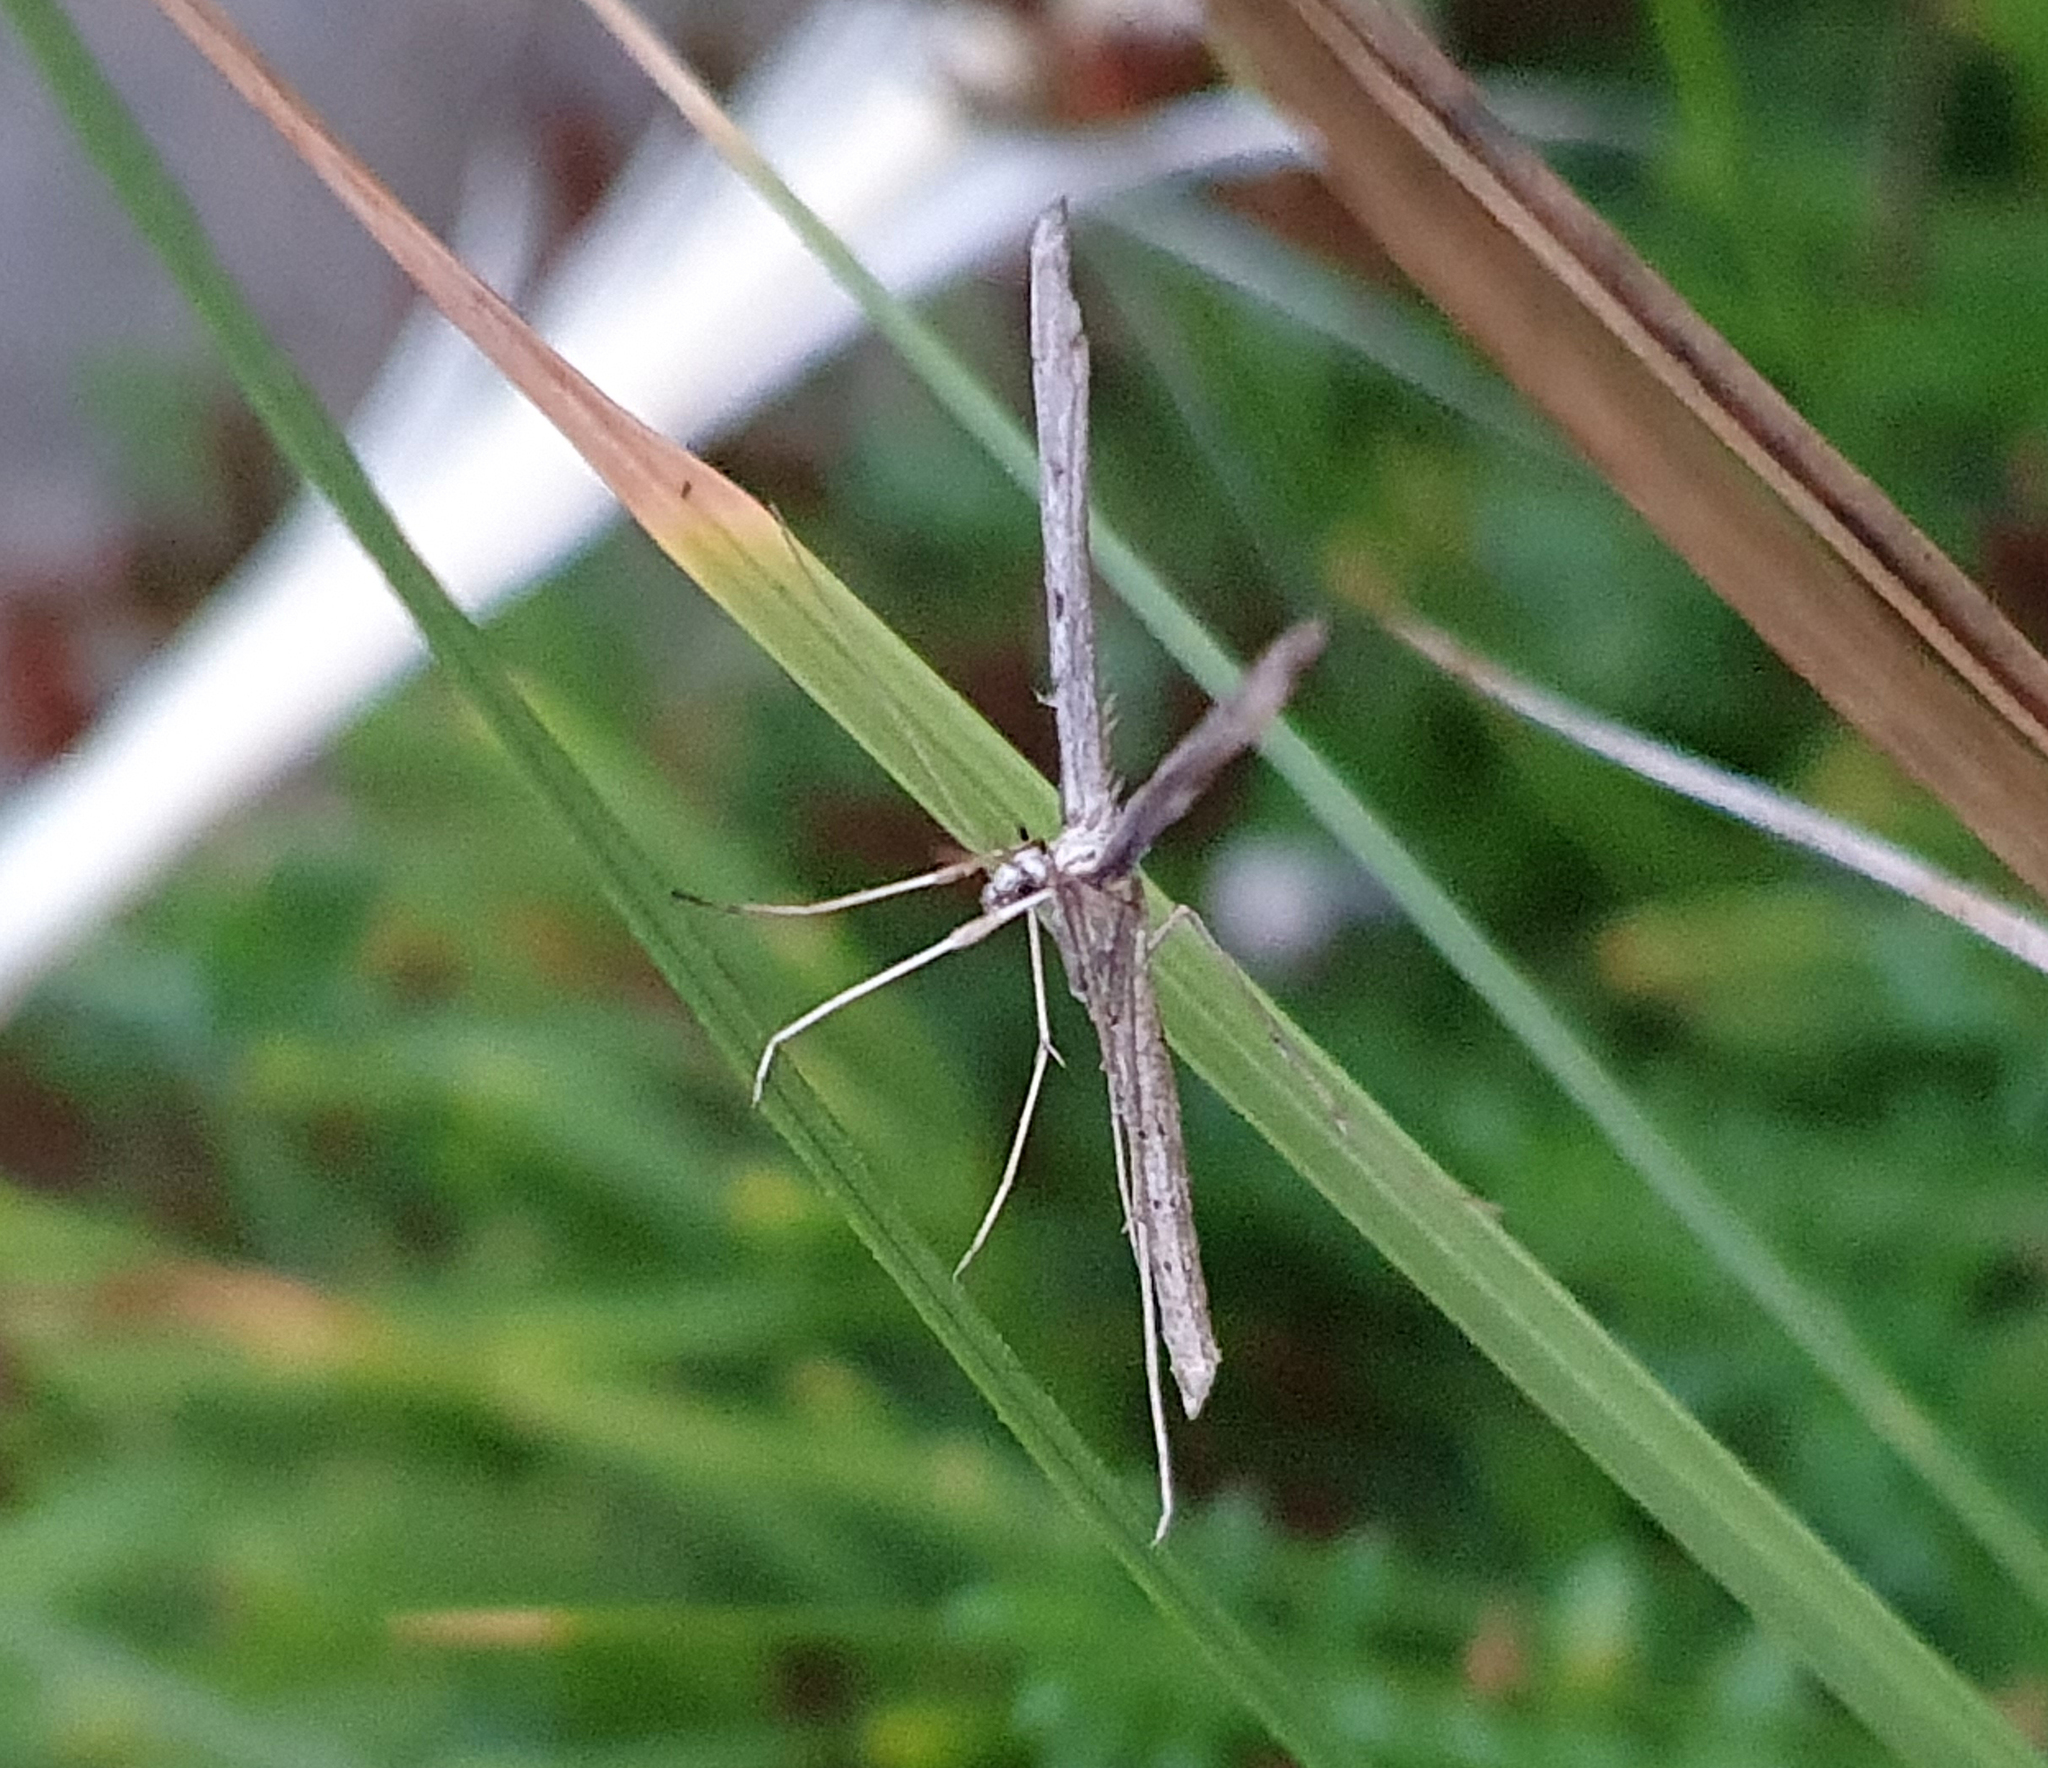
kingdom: Animalia
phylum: Arthropoda
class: Insecta
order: Lepidoptera
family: Pterophoridae
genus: Agdistis
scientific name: Agdistis
